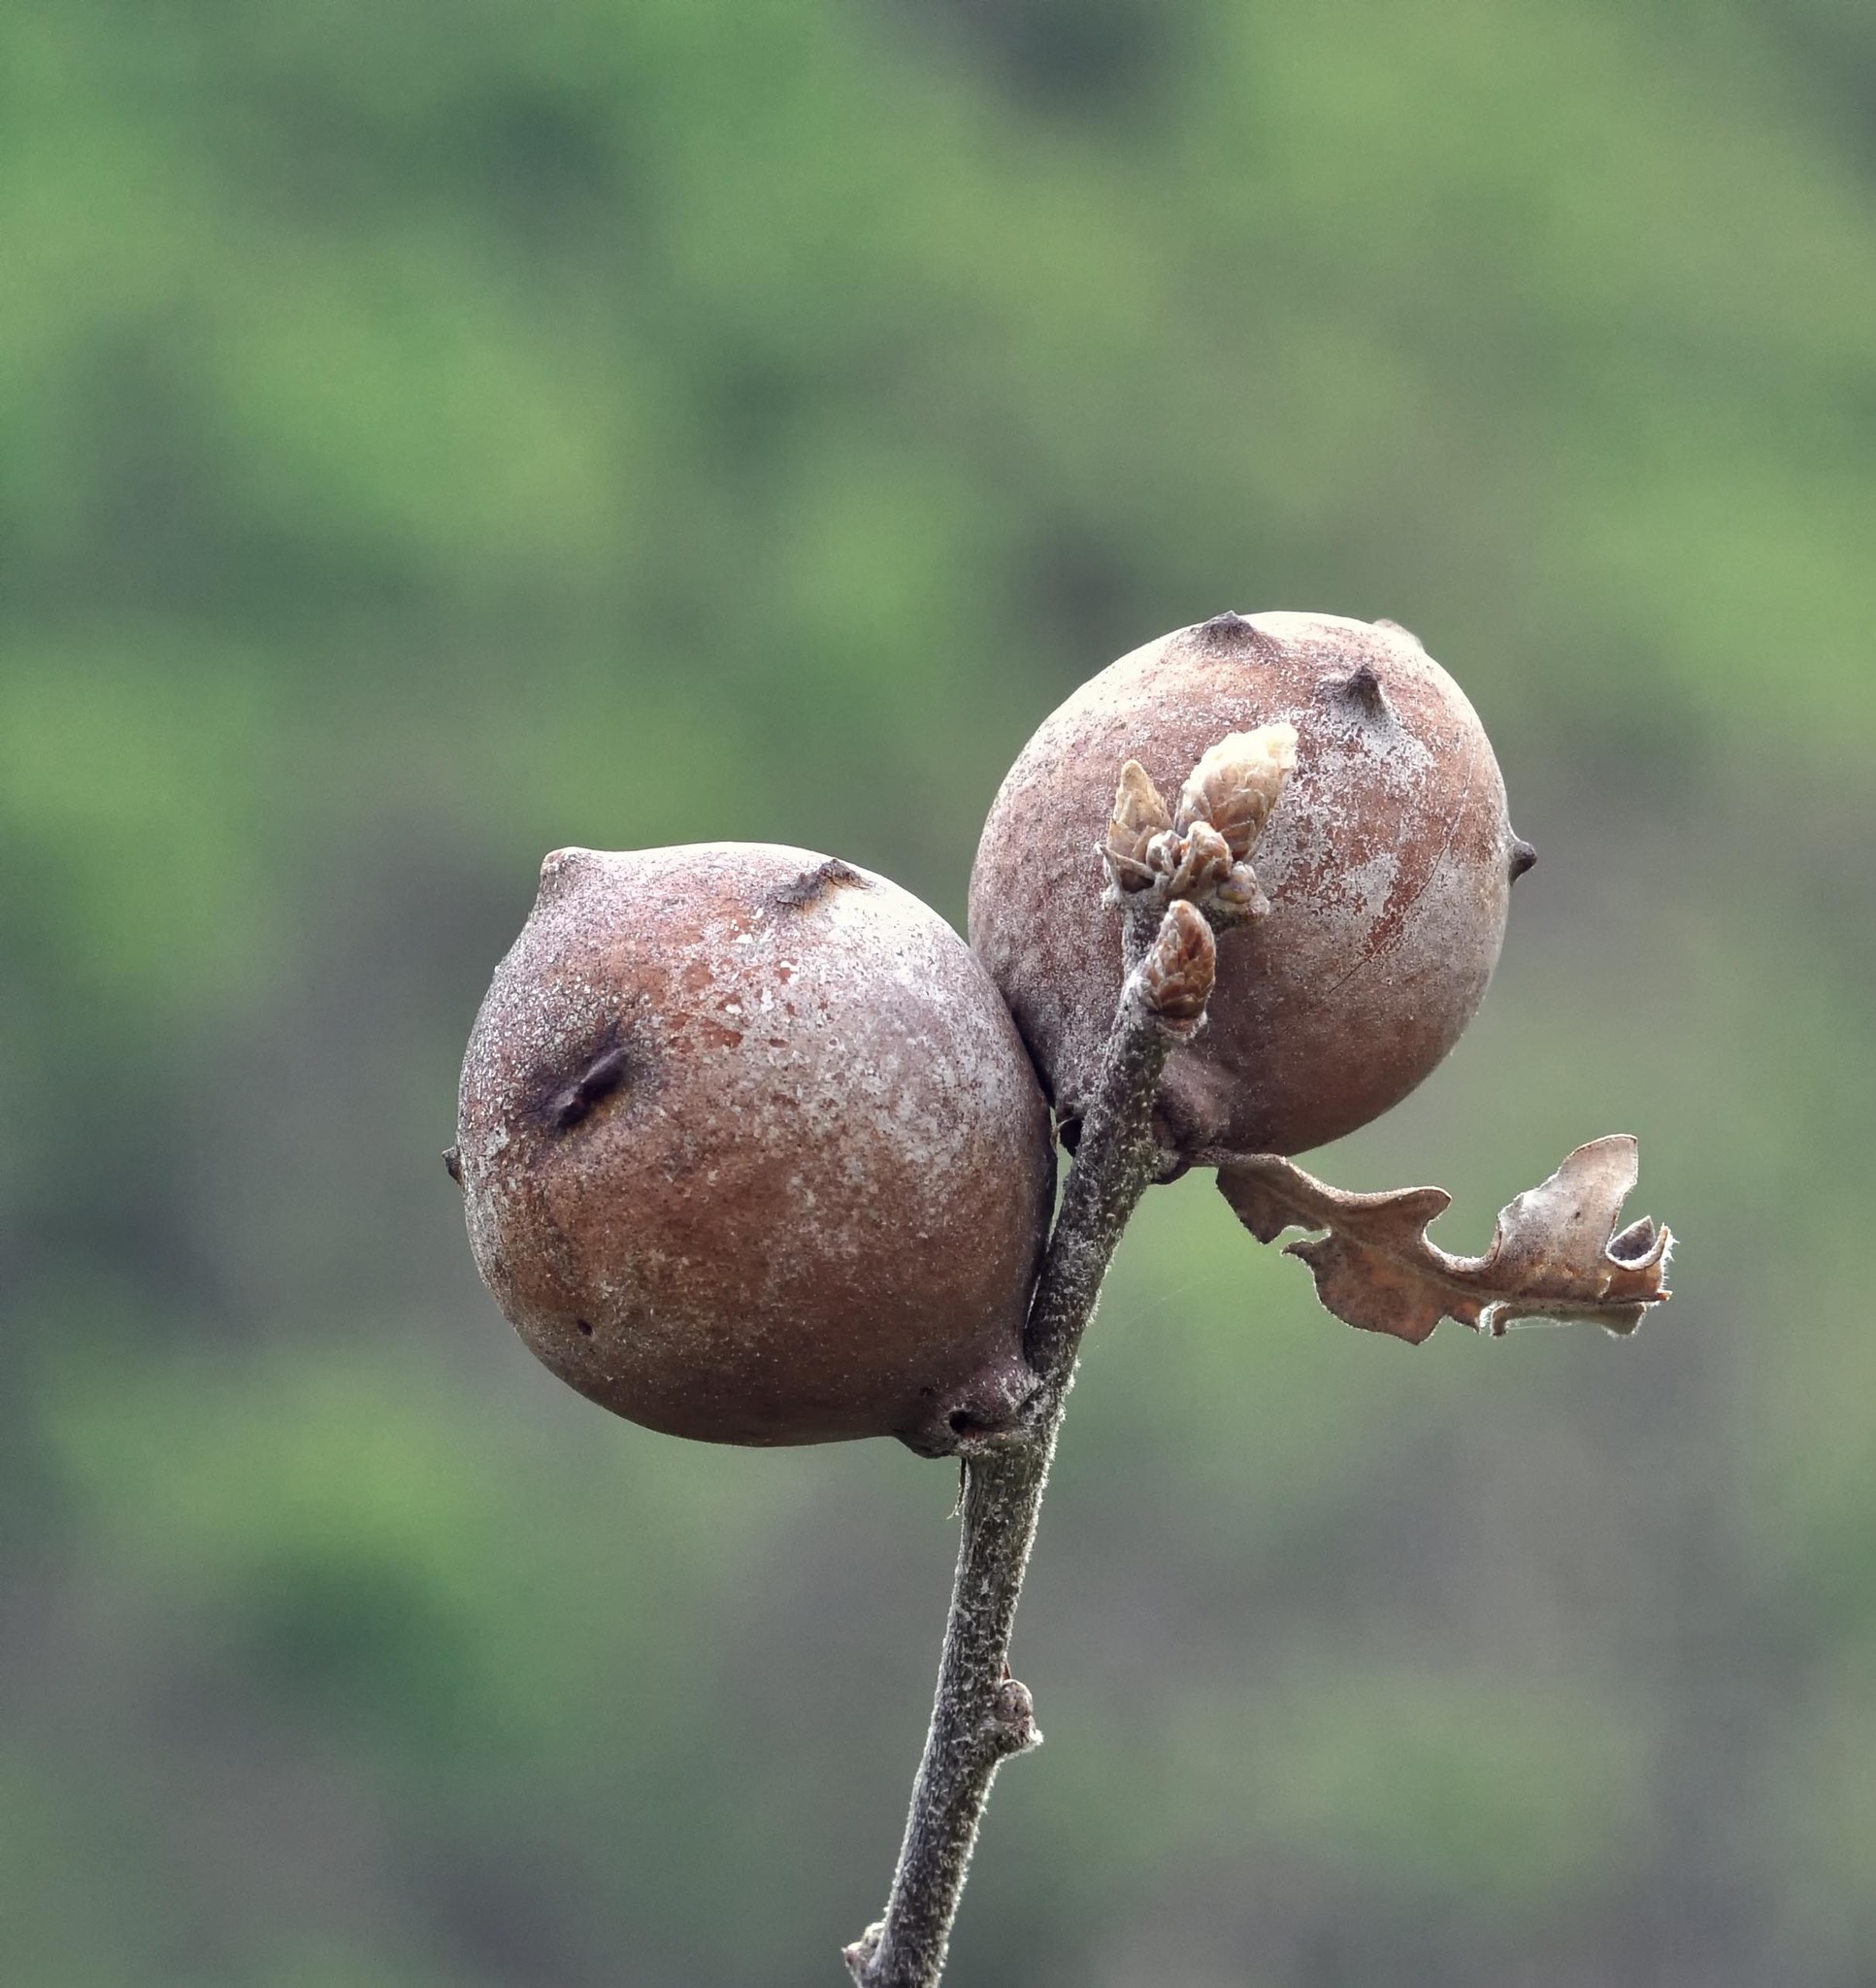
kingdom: Animalia
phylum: Arthropoda
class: Insecta
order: Hymenoptera
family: Cynipidae
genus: Andricus
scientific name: Andricus quercustozae
